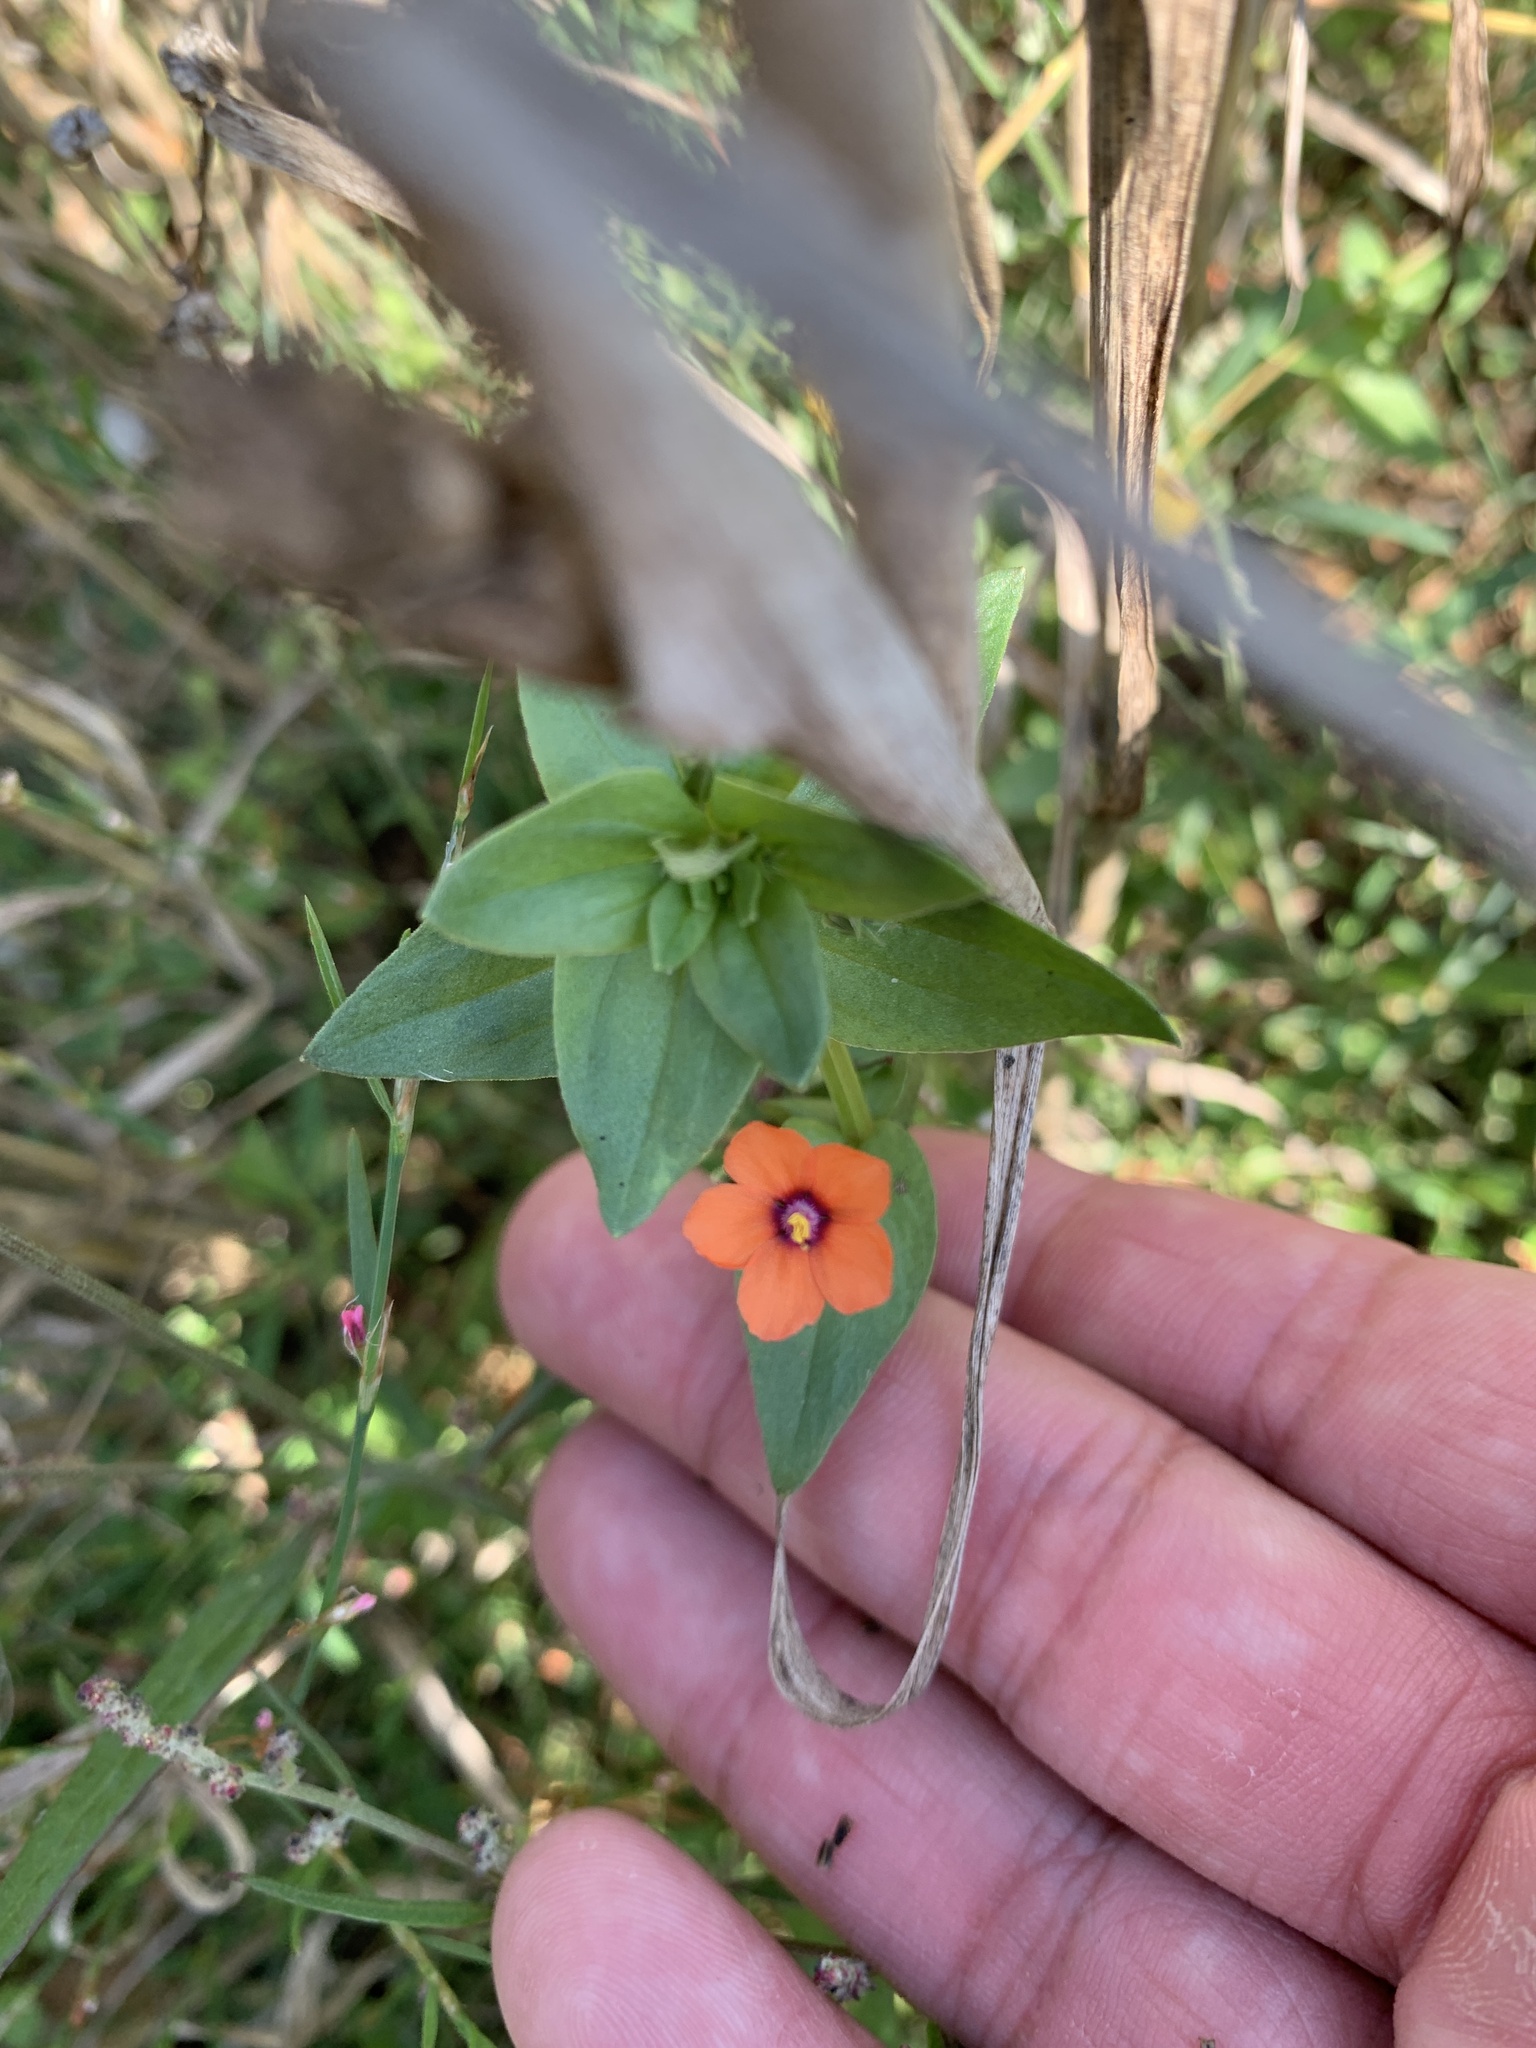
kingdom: Plantae
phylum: Tracheophyta
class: Magnoliopsida
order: Ericales
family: Primulaceae
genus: Lysimachia
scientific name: Lysimachia arvensis
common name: Scarlet pimpernel
